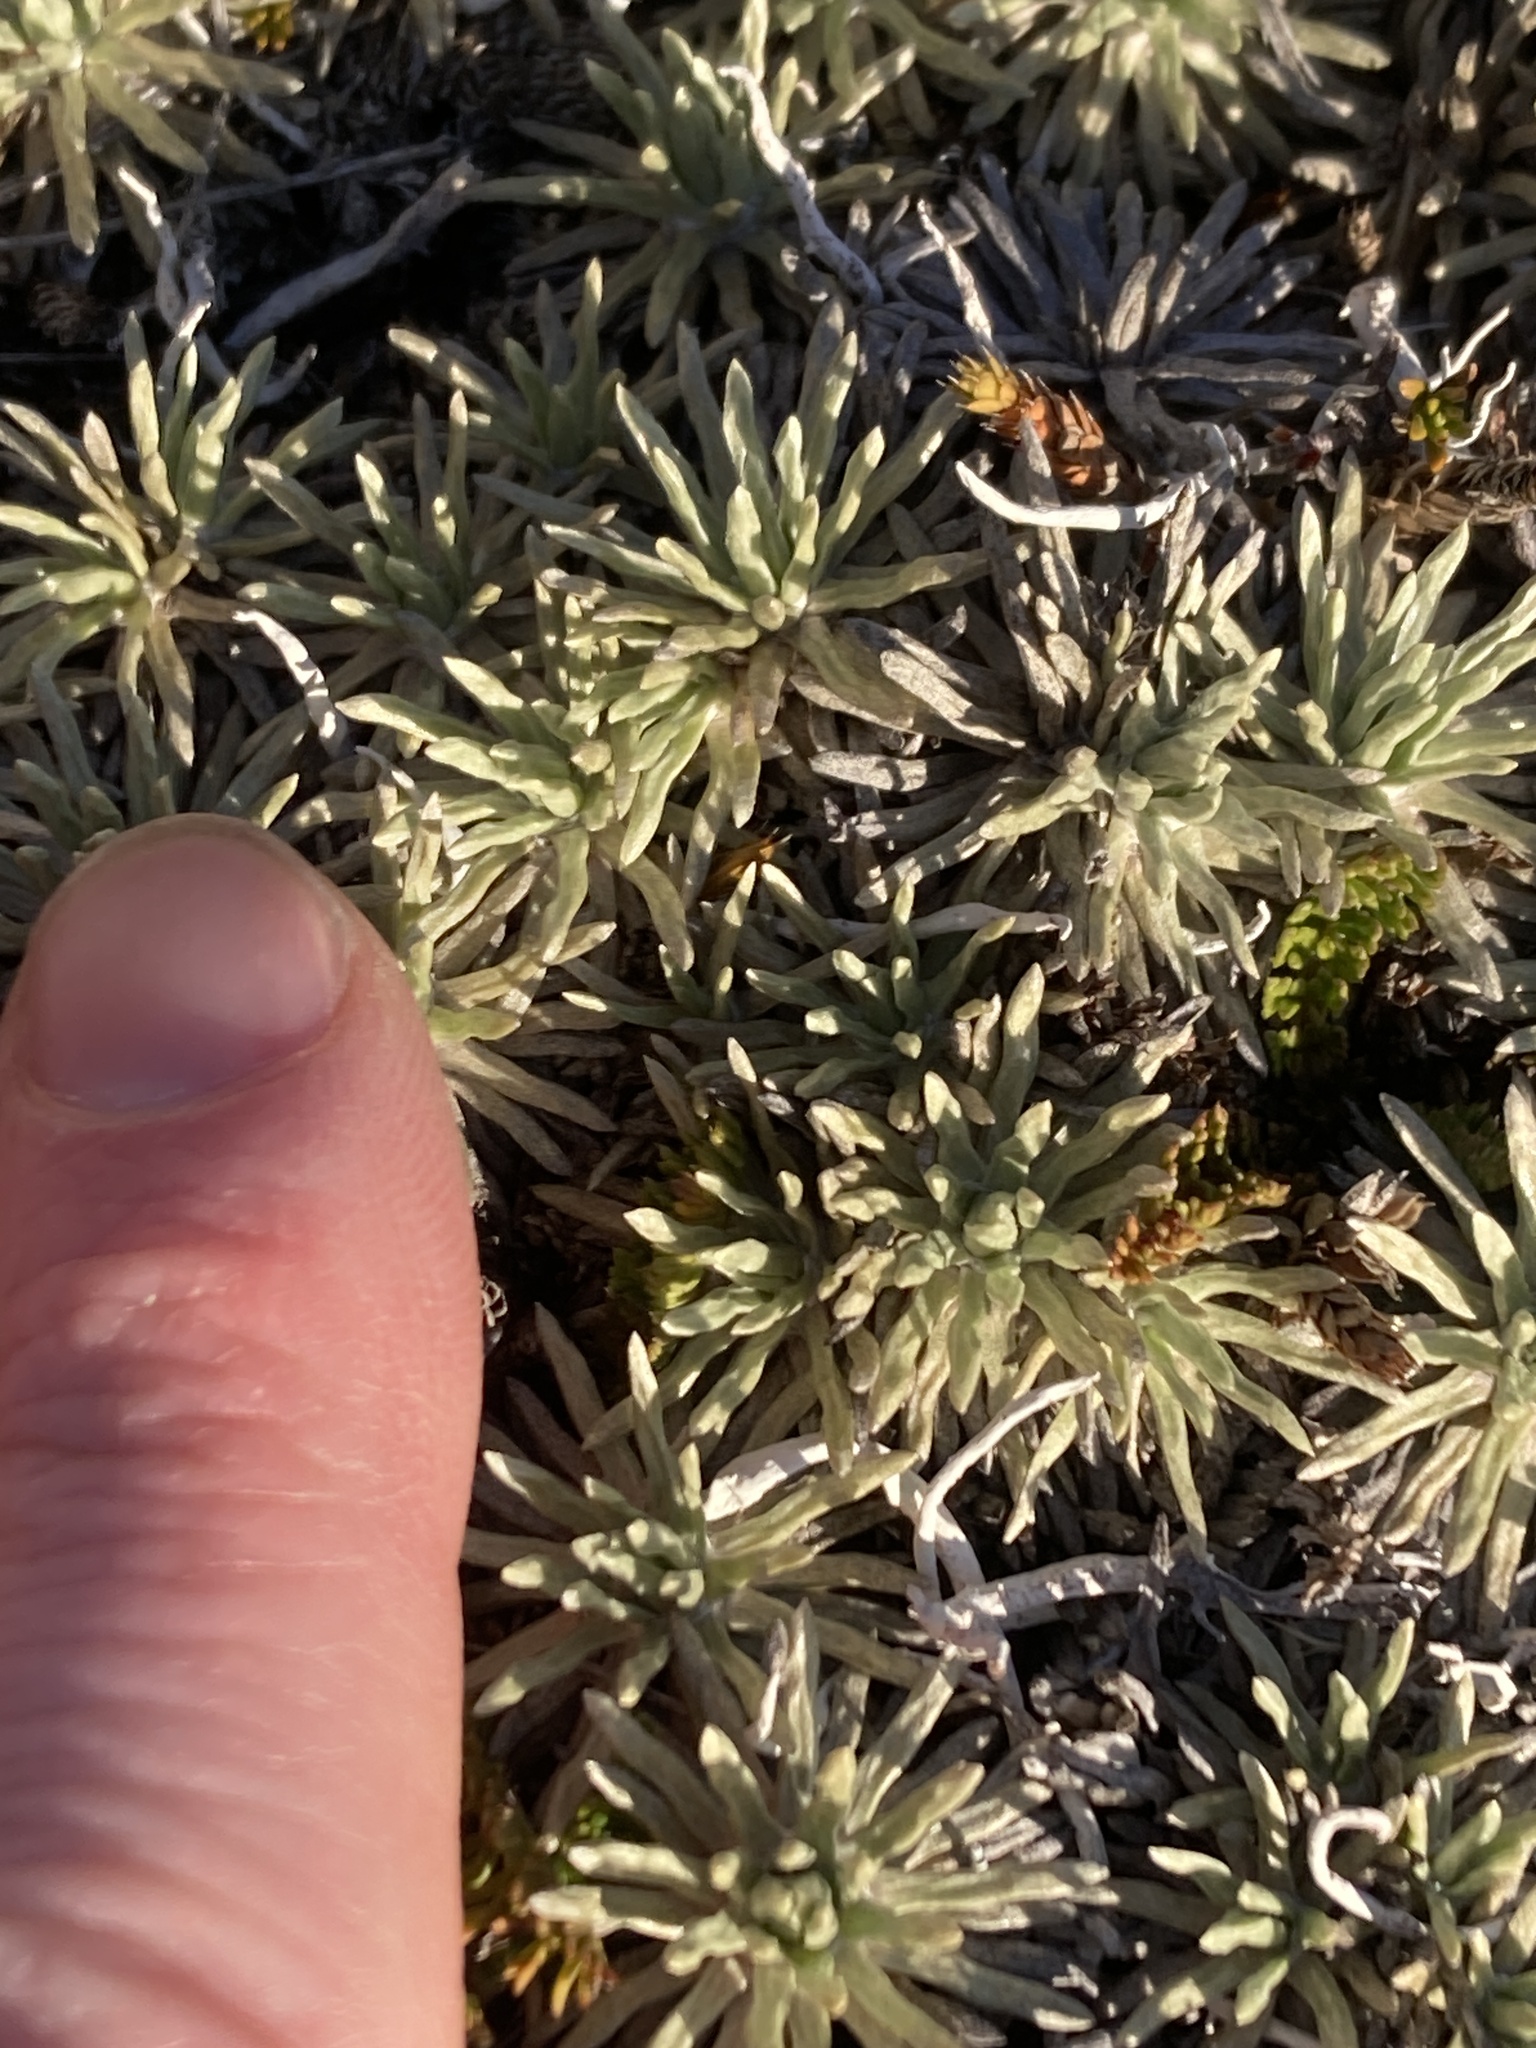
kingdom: Plantae
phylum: Tracheophyta
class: Magnoliopsida
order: Asterales
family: Asteraceae
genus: Celmisia
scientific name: Celmisia sessiliflora
